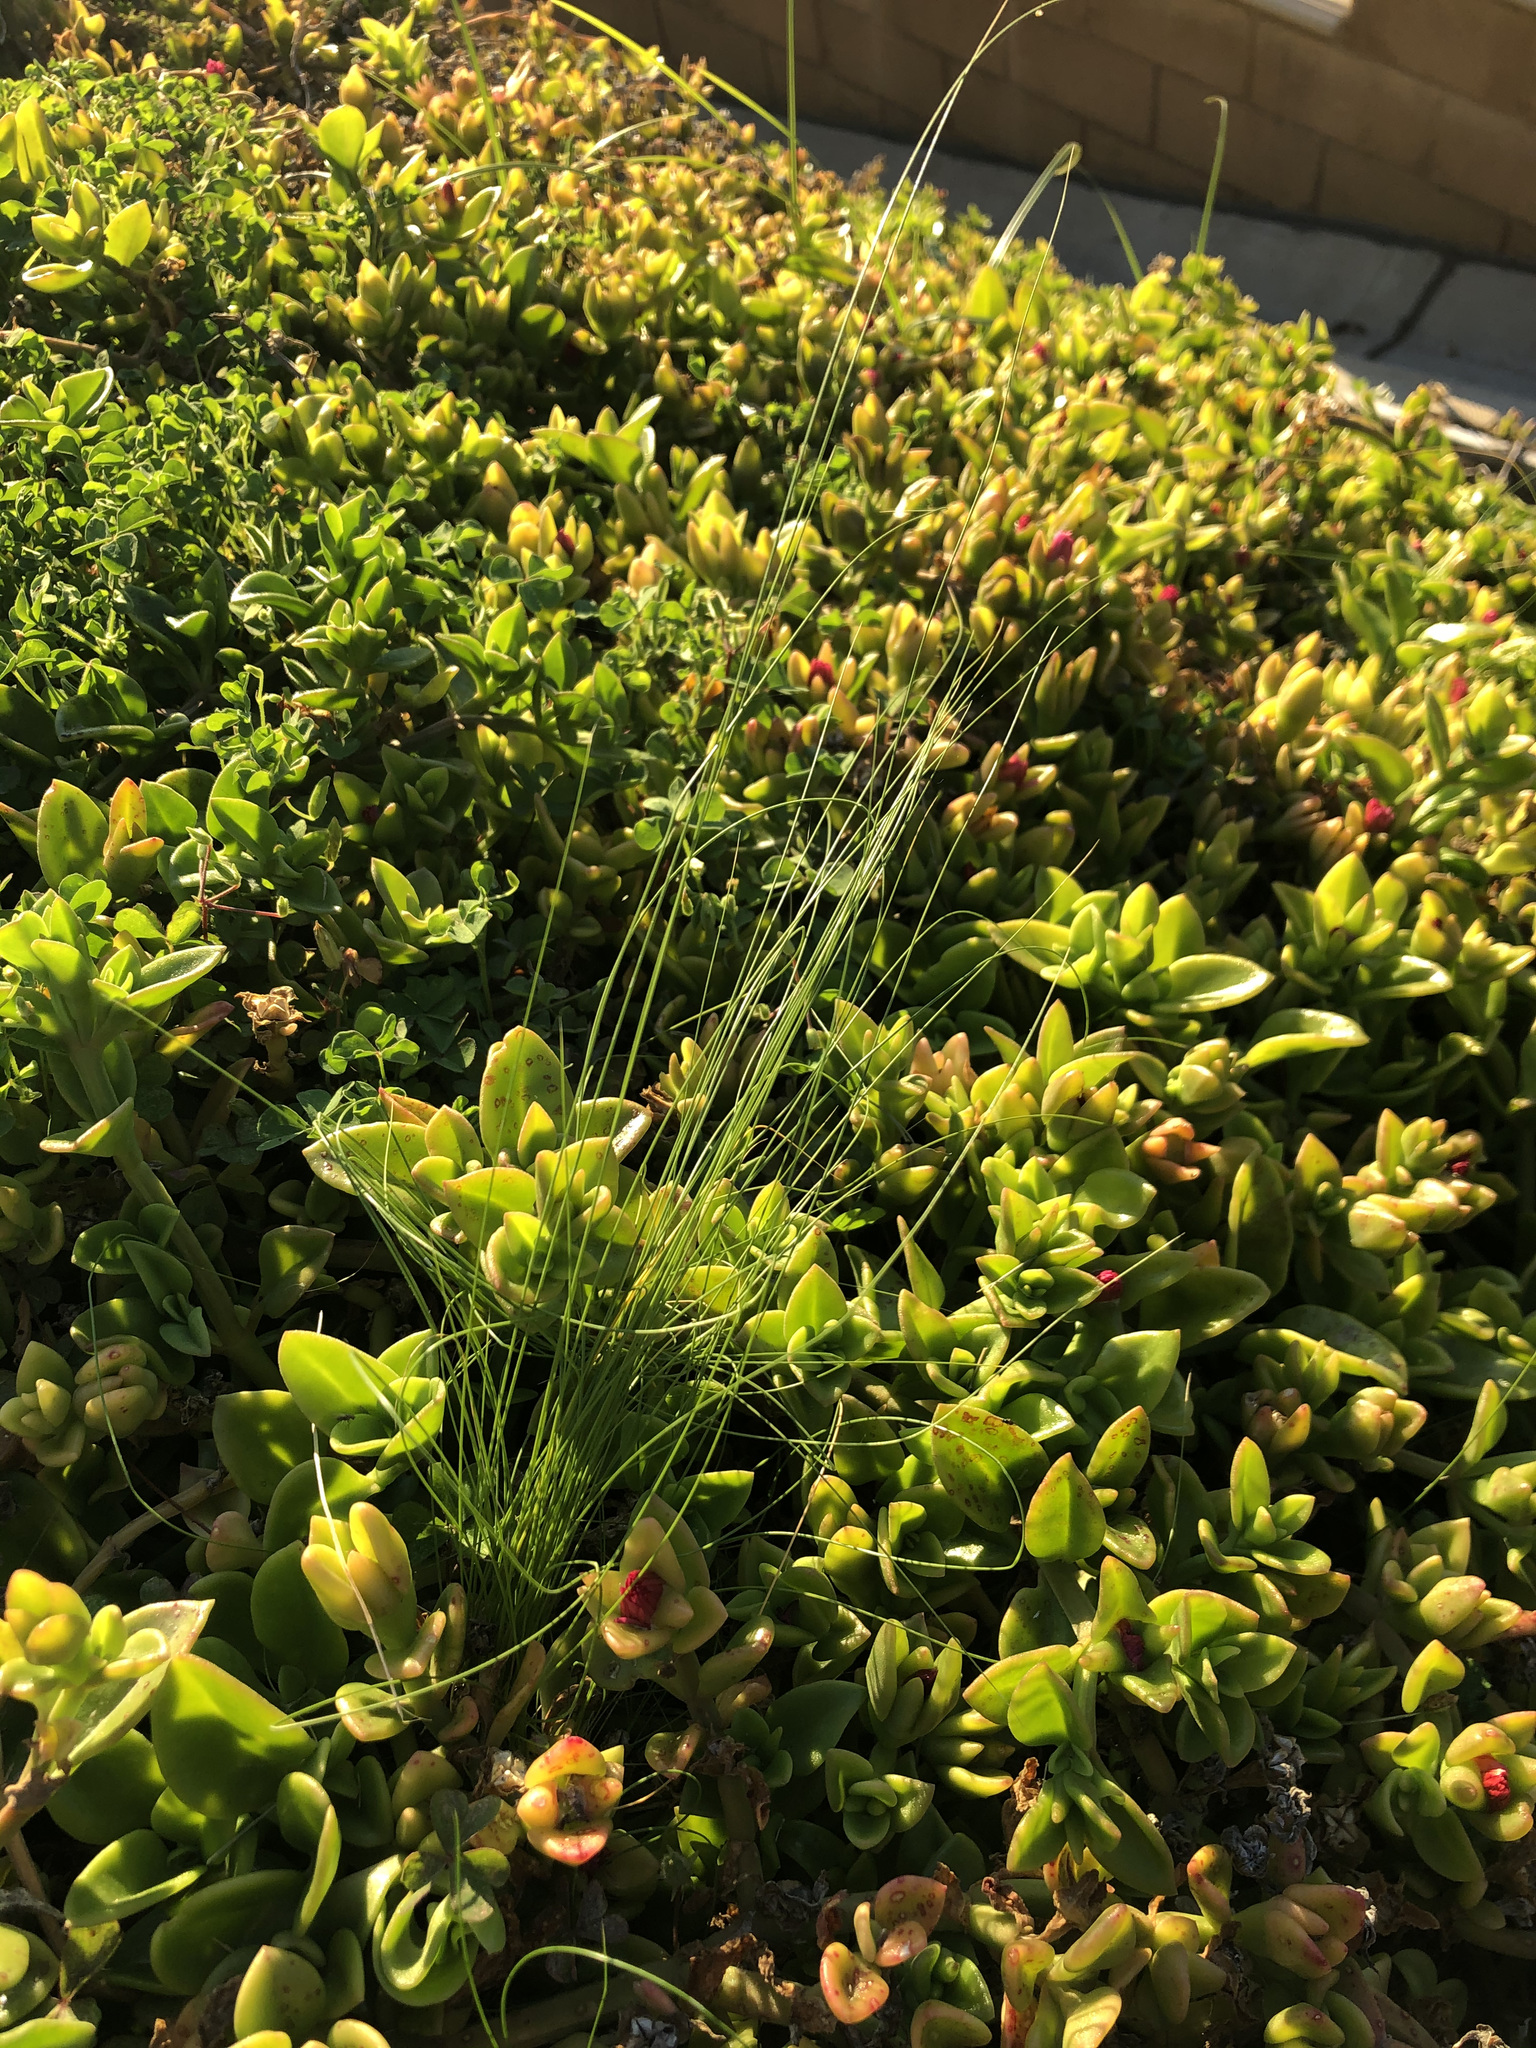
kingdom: Plantae
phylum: Tracheophyta
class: Magnoliopsida
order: Caryophyllales
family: Aizoaceae
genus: Mesembryanthemum
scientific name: Mesembryanthemum cordifolium
